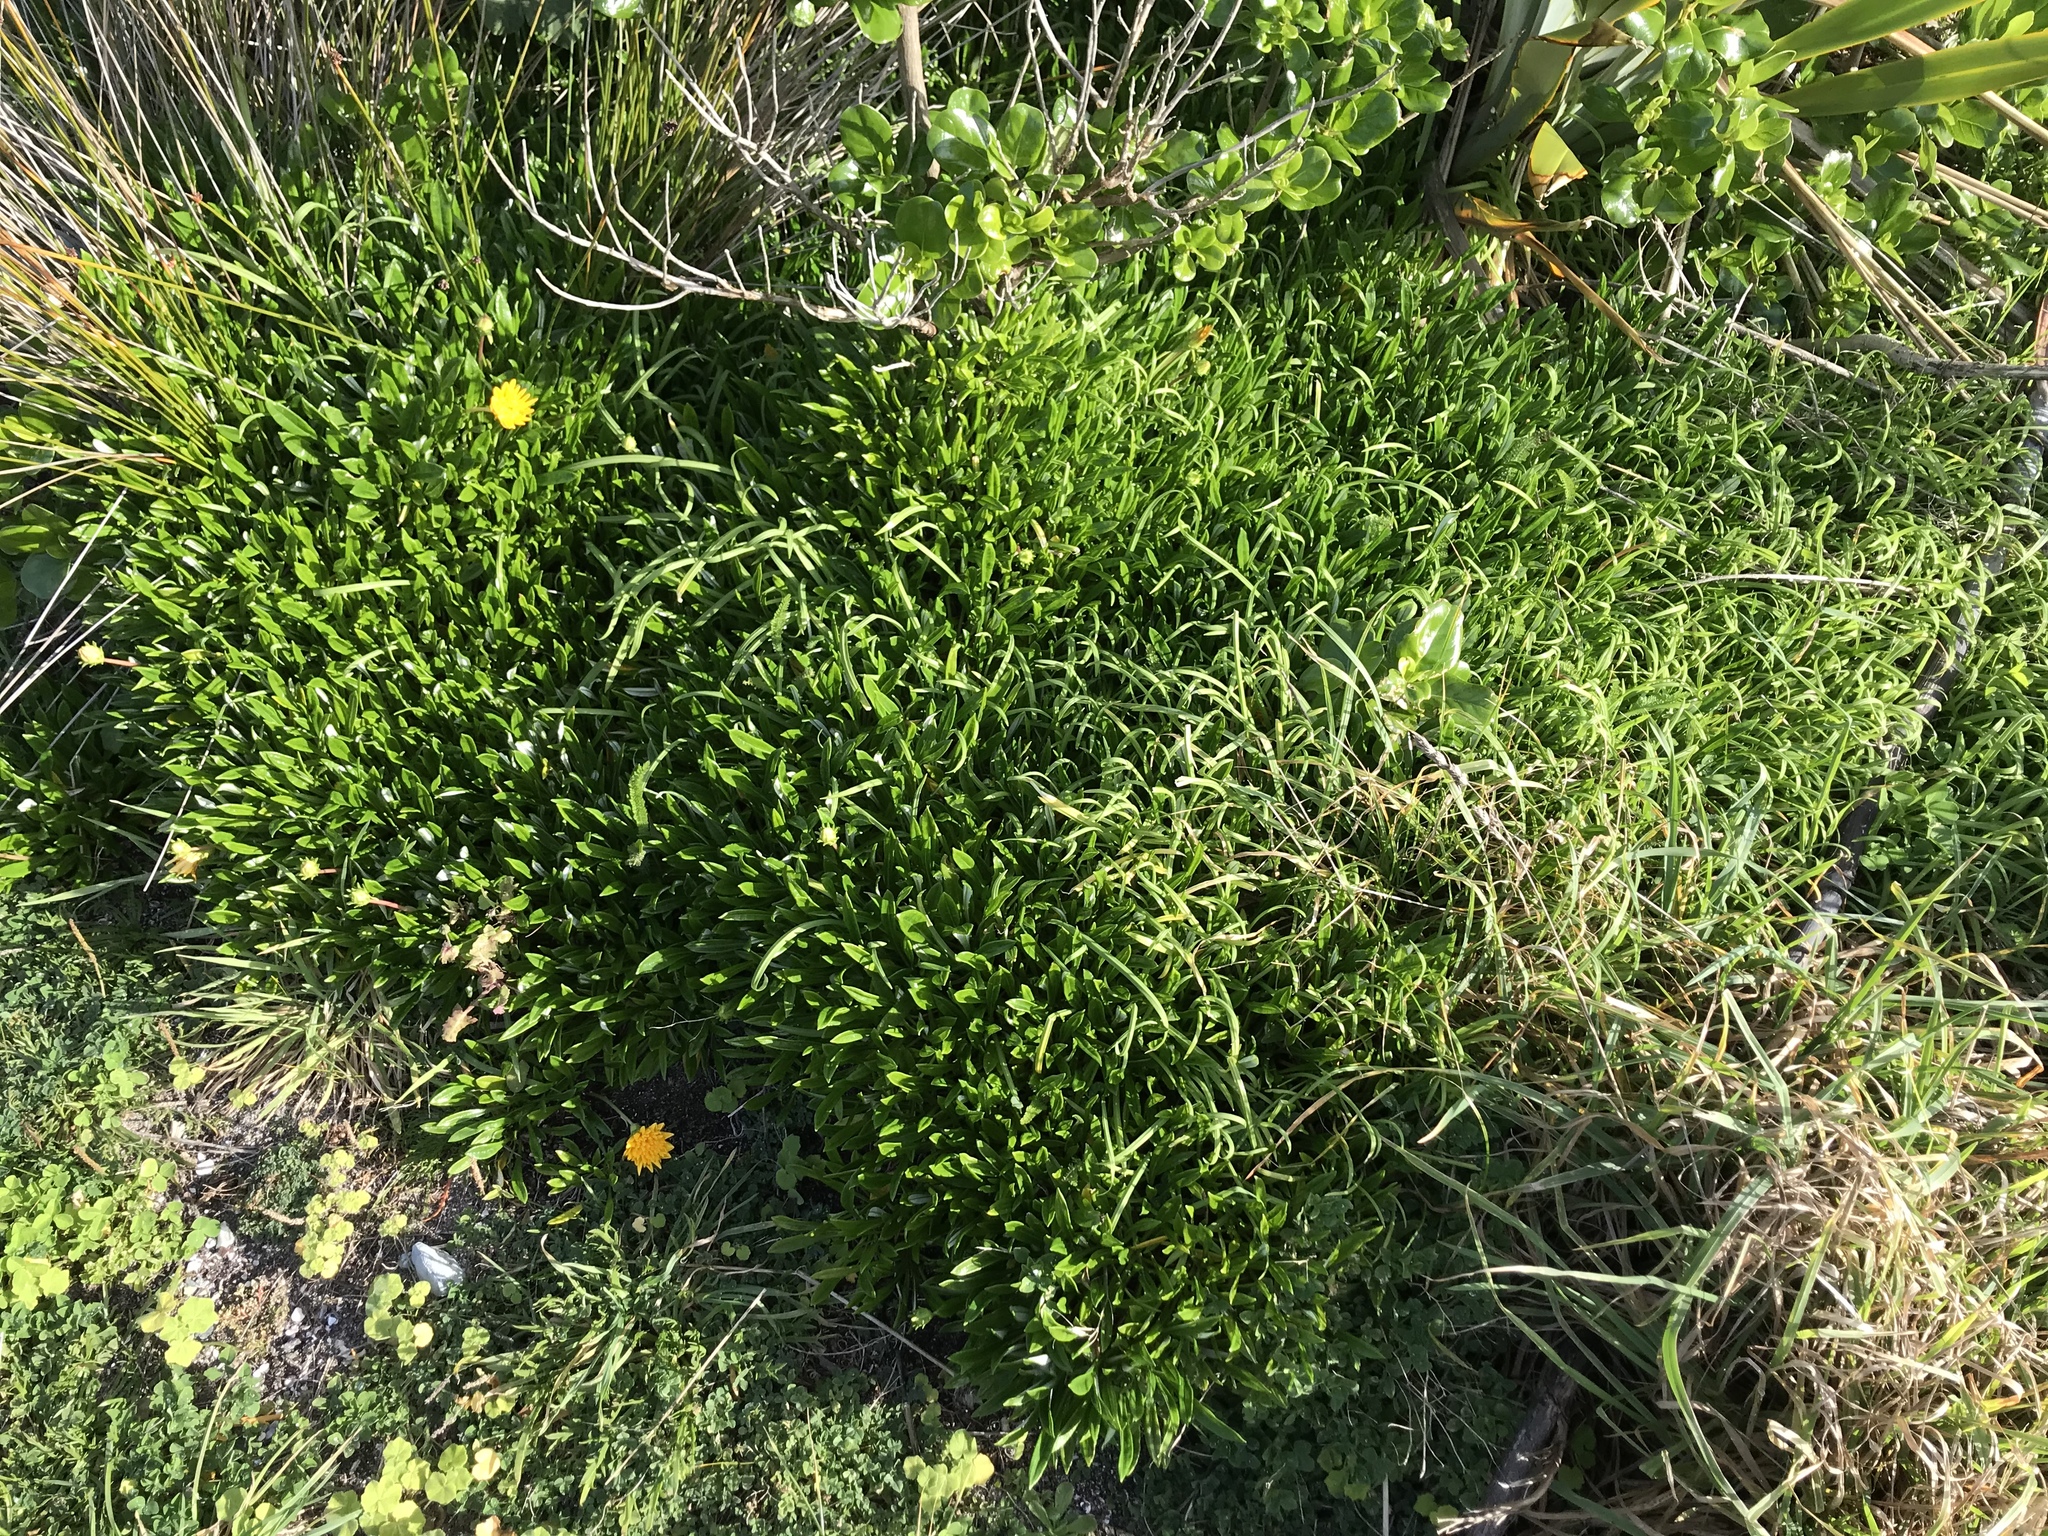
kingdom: Plantae
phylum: Tracheophyta
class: Magnoliopsida
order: Asterales
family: Asteraceae
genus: Gazania
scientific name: Gazania rigens
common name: Treasureflower
